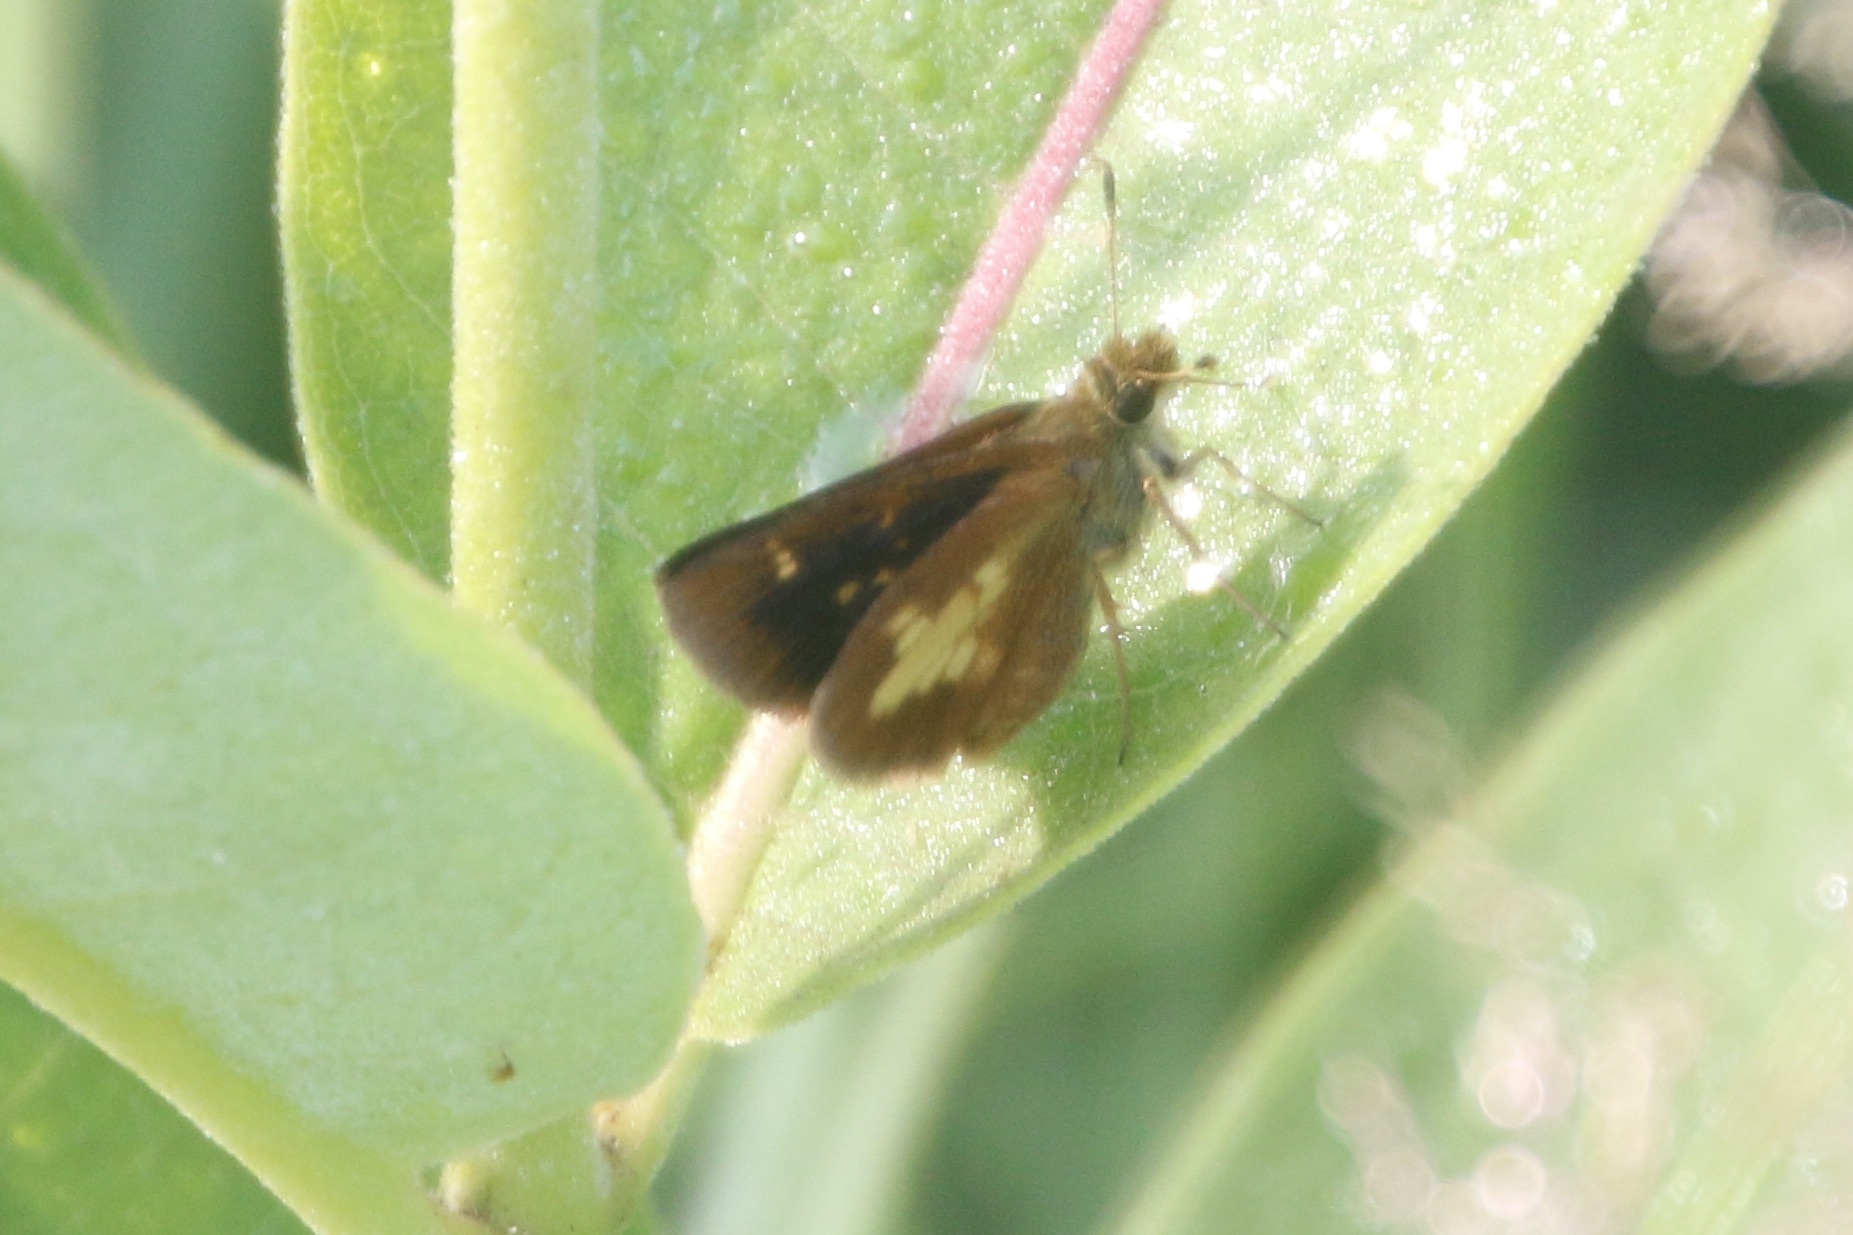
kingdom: Animalia
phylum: Arthropoda
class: Insecta
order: Lepidoptera
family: Hesperiidae
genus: Poanes
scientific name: Poanes massasoit
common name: Mulberrywing
